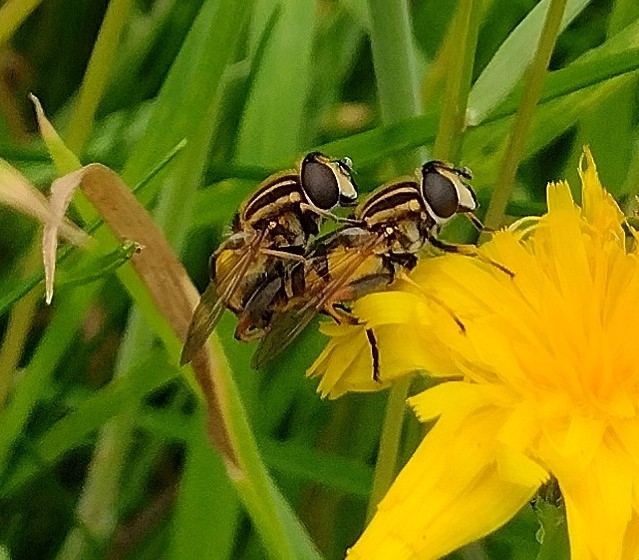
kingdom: Animalia
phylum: Arthropoda
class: Insecta
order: Diptera
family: Syrphidae
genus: Helophilus
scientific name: Helophilus pendulus
